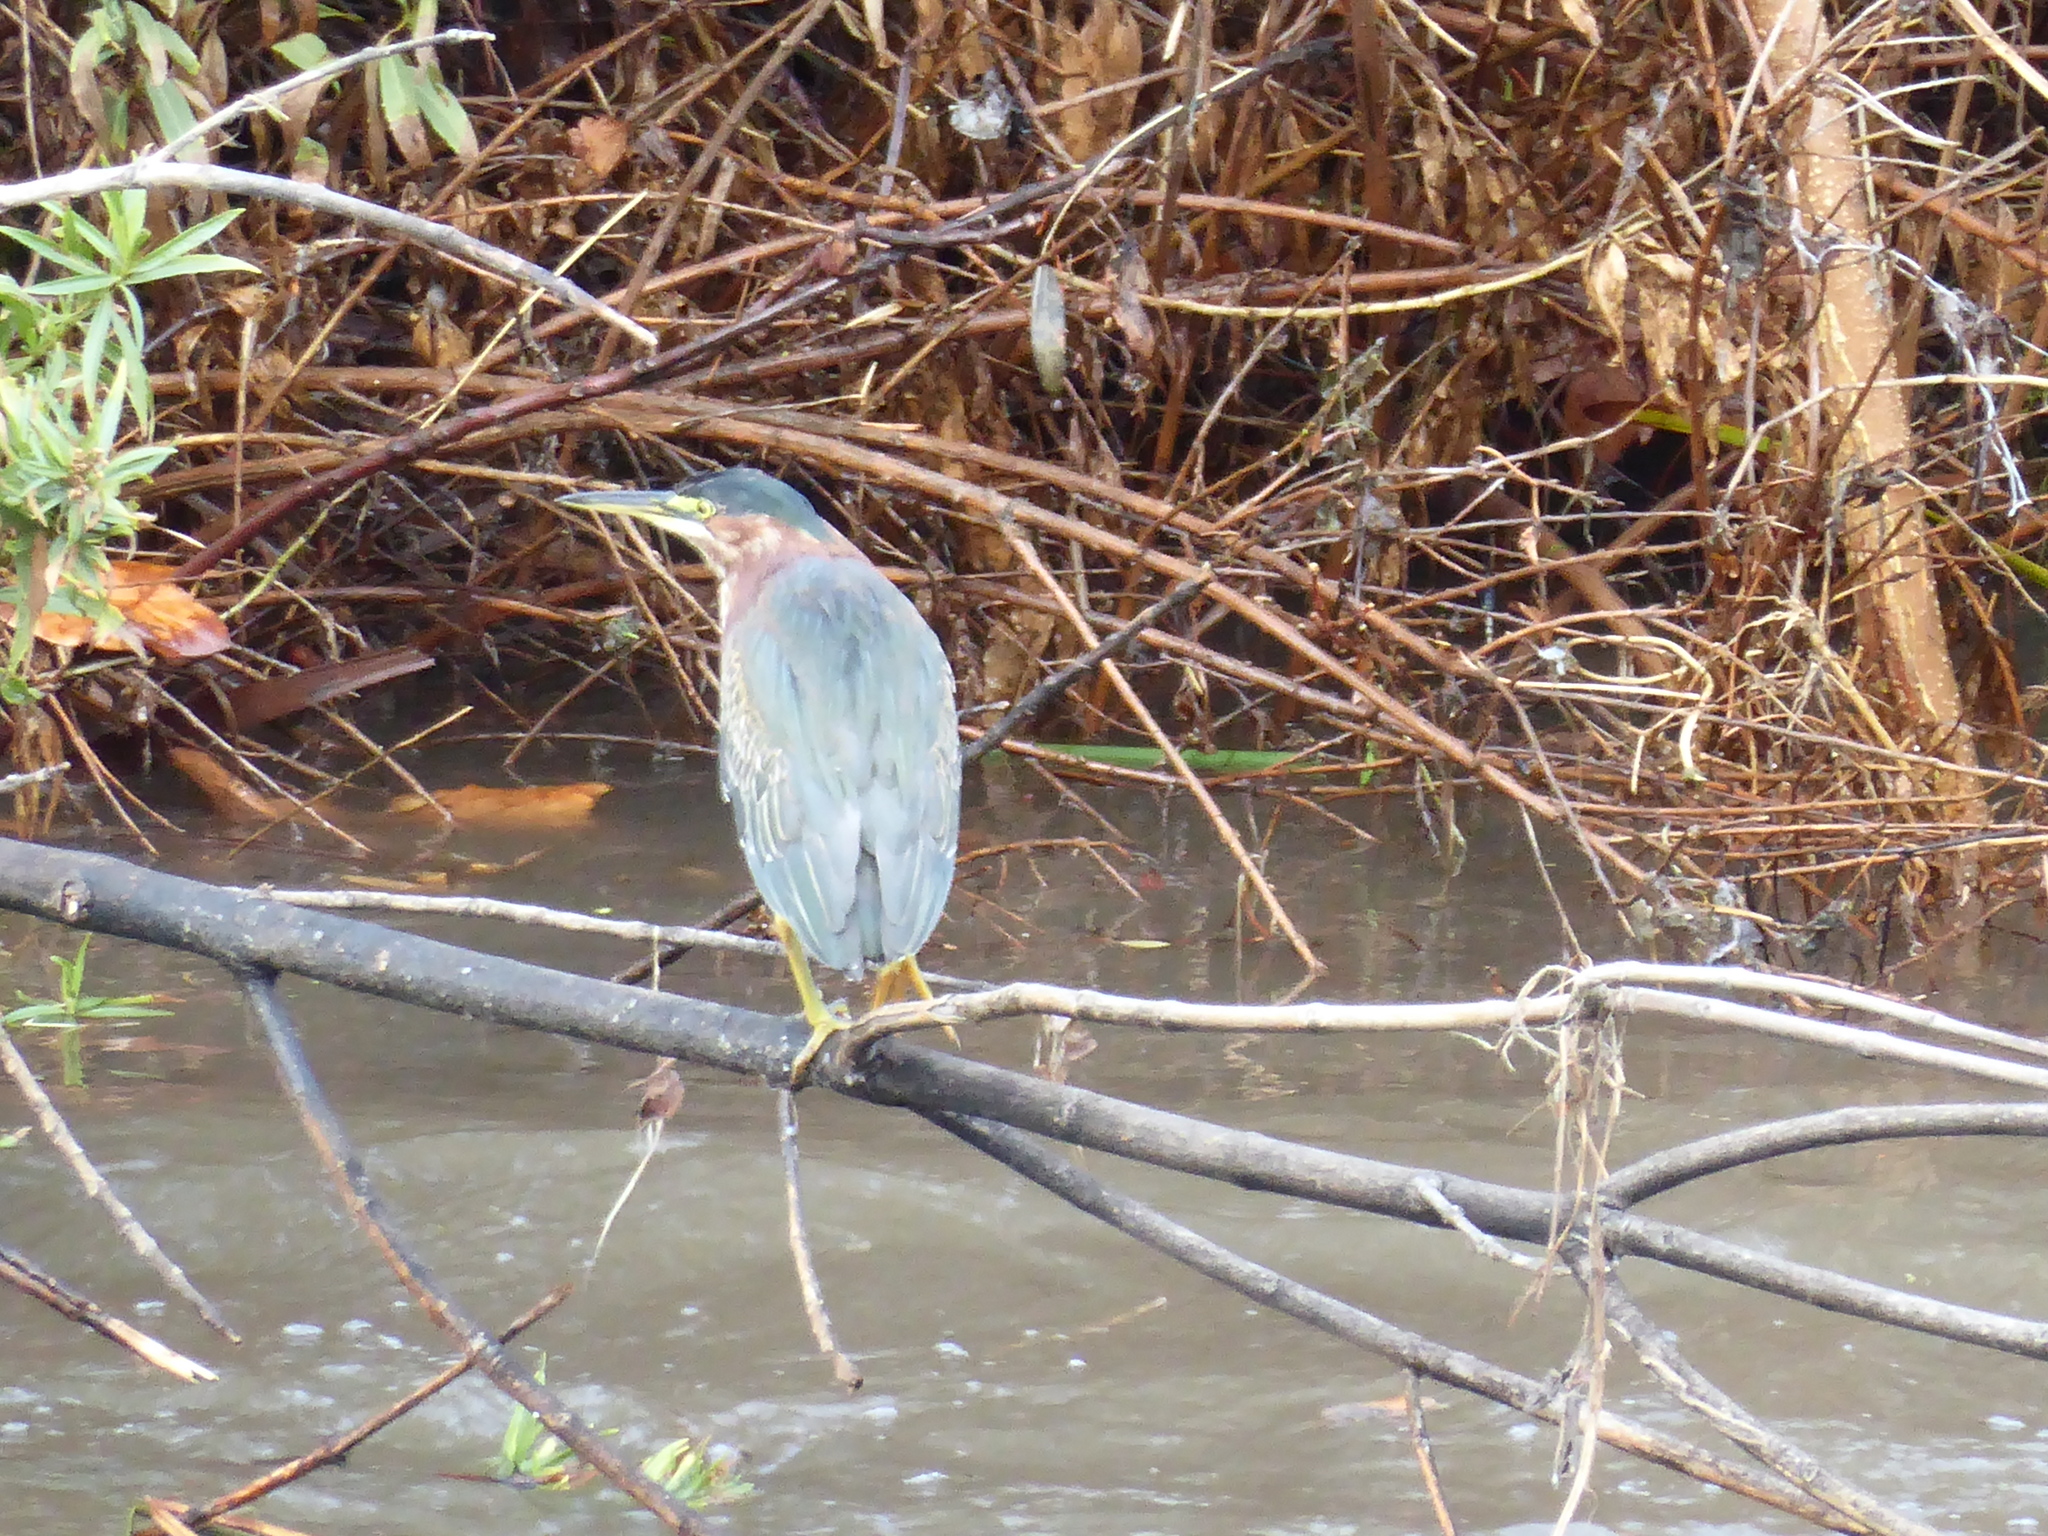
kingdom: Animalia
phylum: Chordata
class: Aves
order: Pelecaniformes
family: Ardeidae
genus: Butorides
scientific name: Butorides virescens
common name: Green heron
